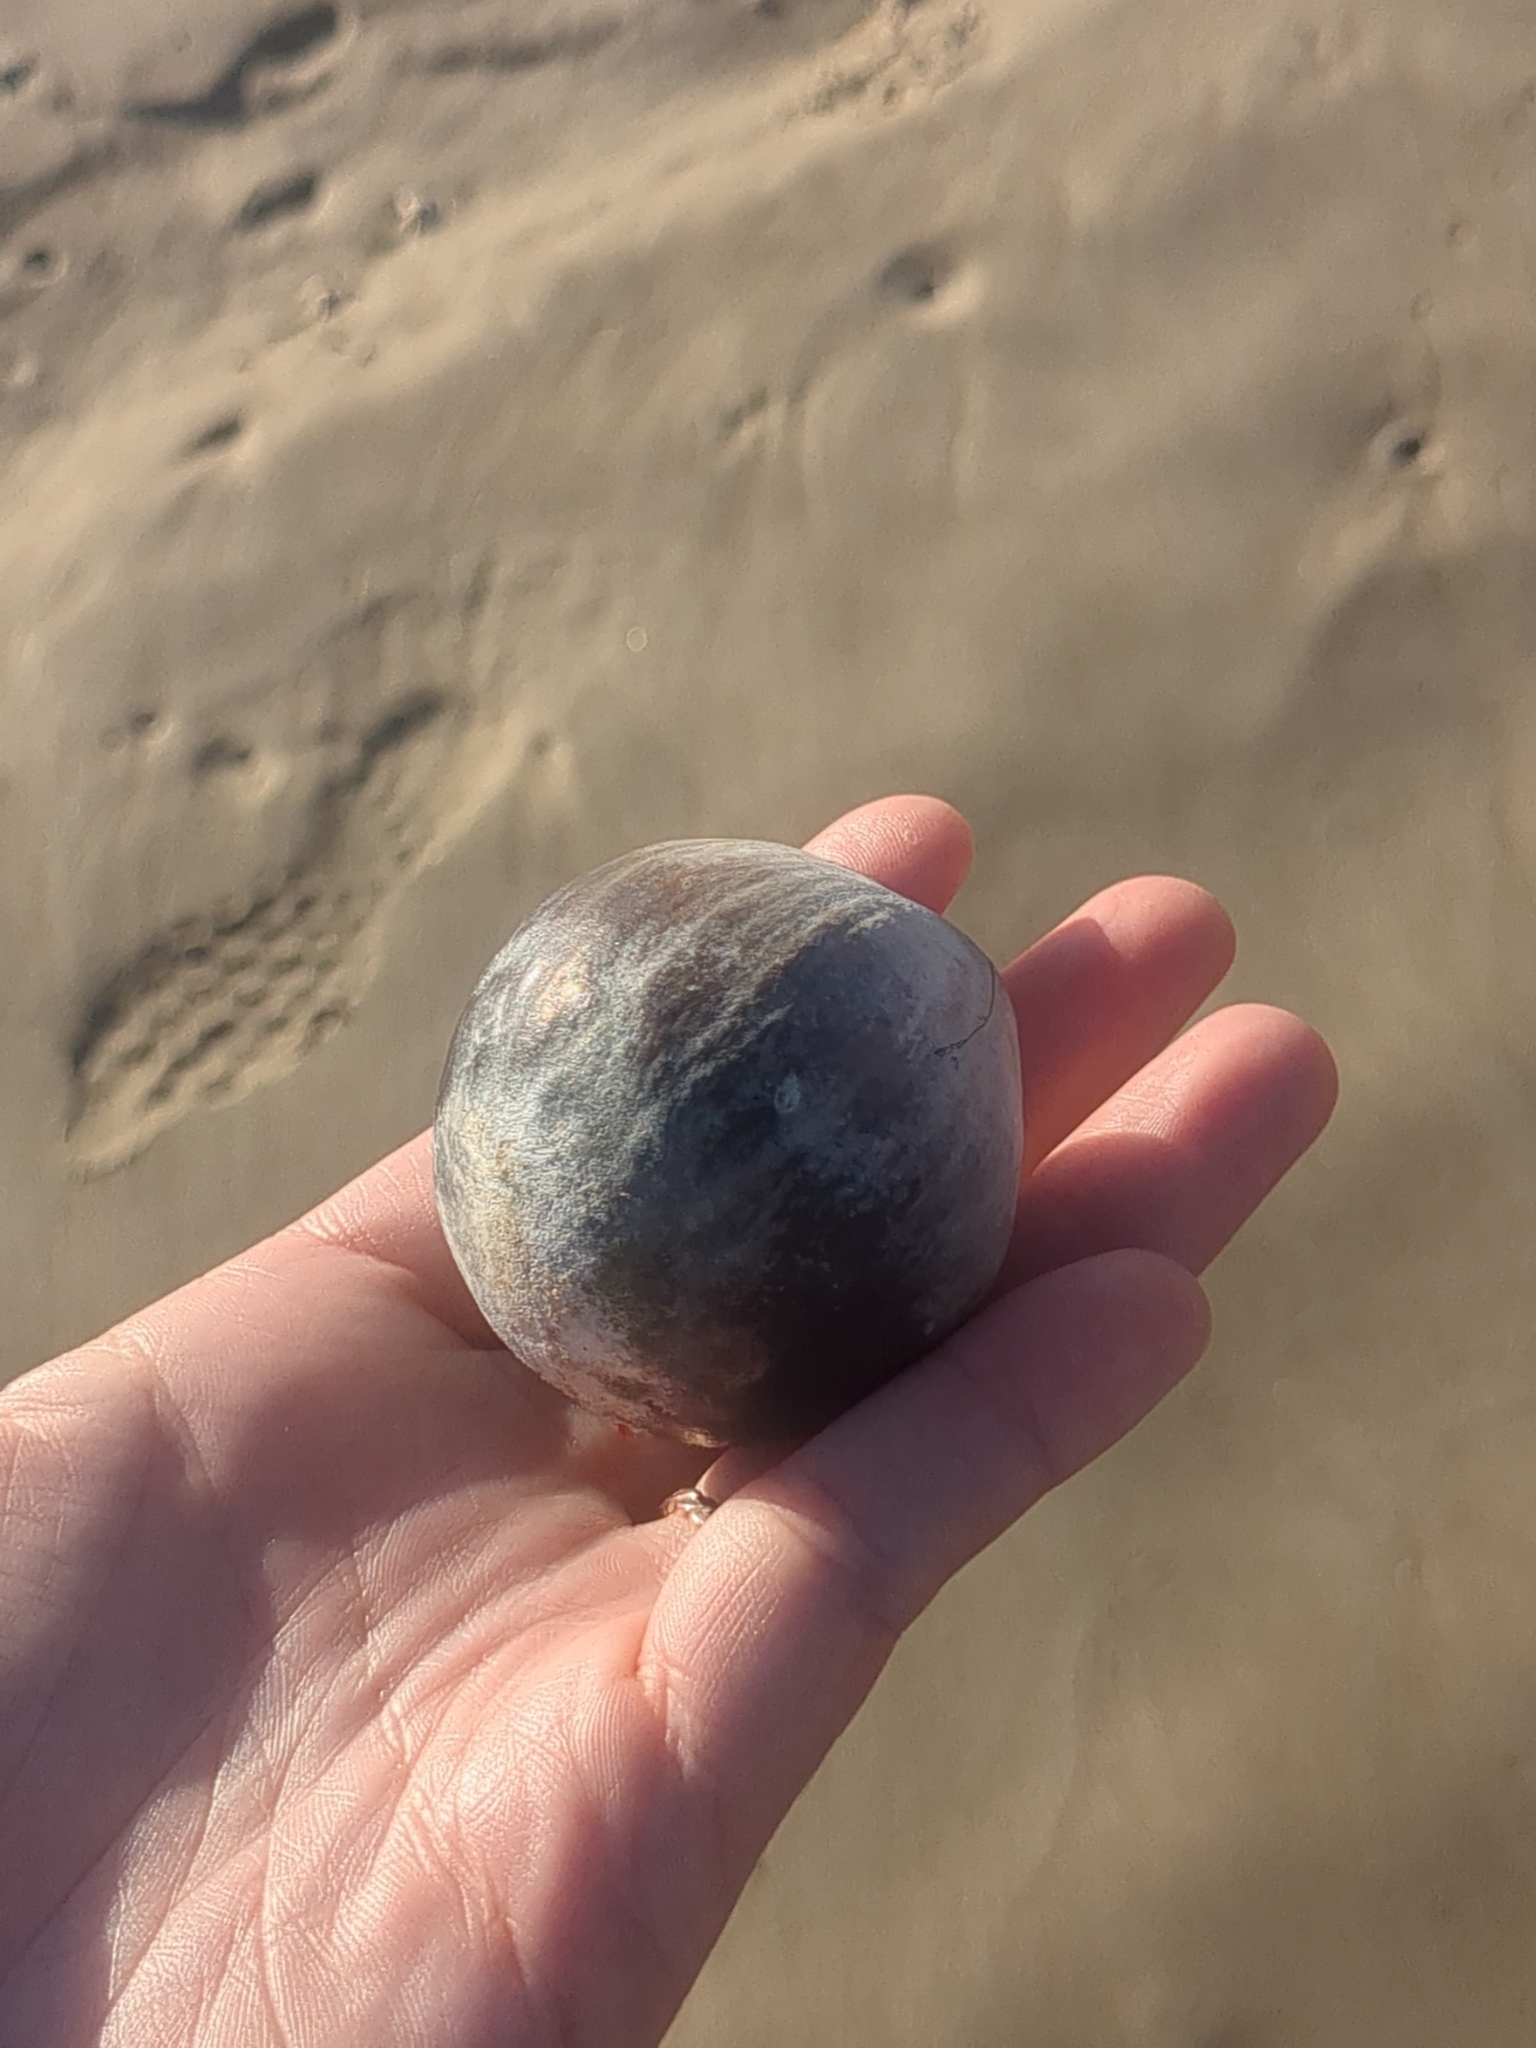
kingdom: Plantae
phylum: Tracheophyta
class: Liliopsida
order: Arecales
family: Arecaceae
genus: Manicaria
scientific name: Manicaria saccifera
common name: Sea coconut
